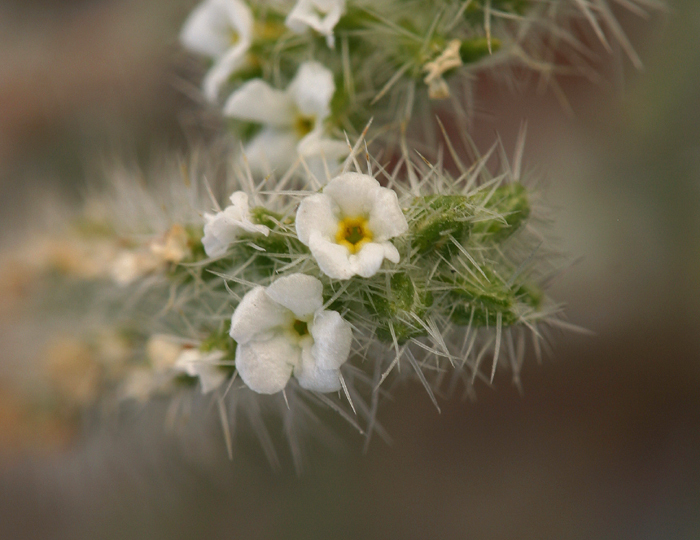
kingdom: Plantae
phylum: Tracheophyta
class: Magnoliopsida
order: Boraginales
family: Boraginaceae
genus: Johnstonella
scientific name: Johnstonella angustifolia
